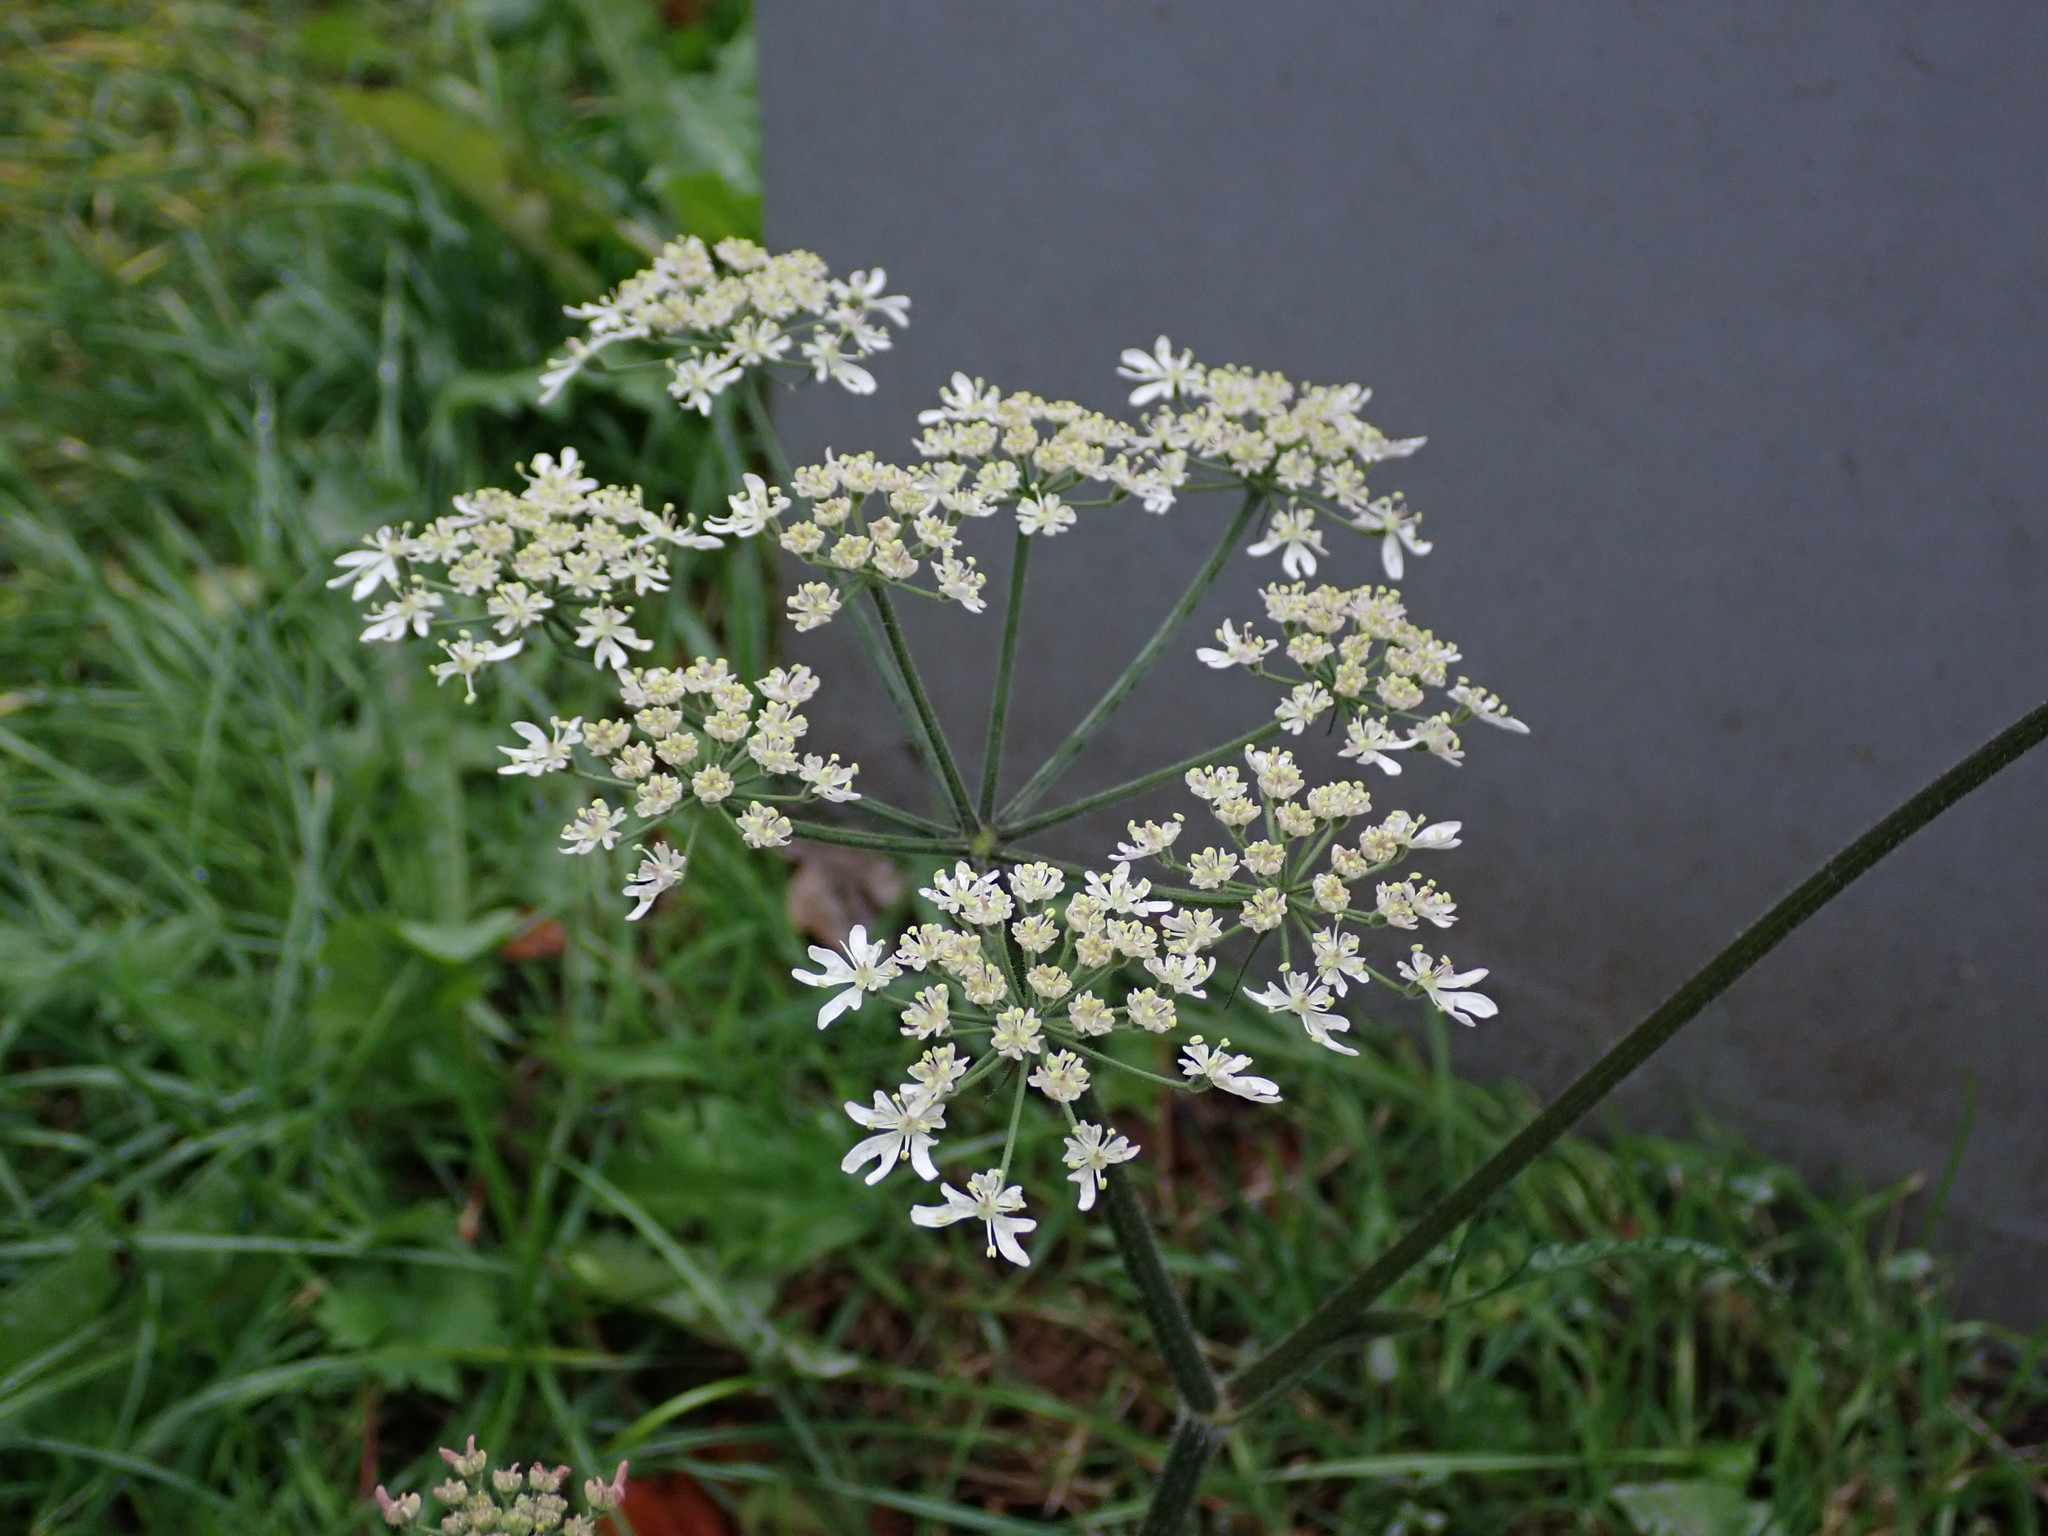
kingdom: Plantae
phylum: Tracheophyta
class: Magnoliopsida
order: Apiales
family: Apiaceae
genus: Heracleum
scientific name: Heracleum sphondylium
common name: Hogweed
